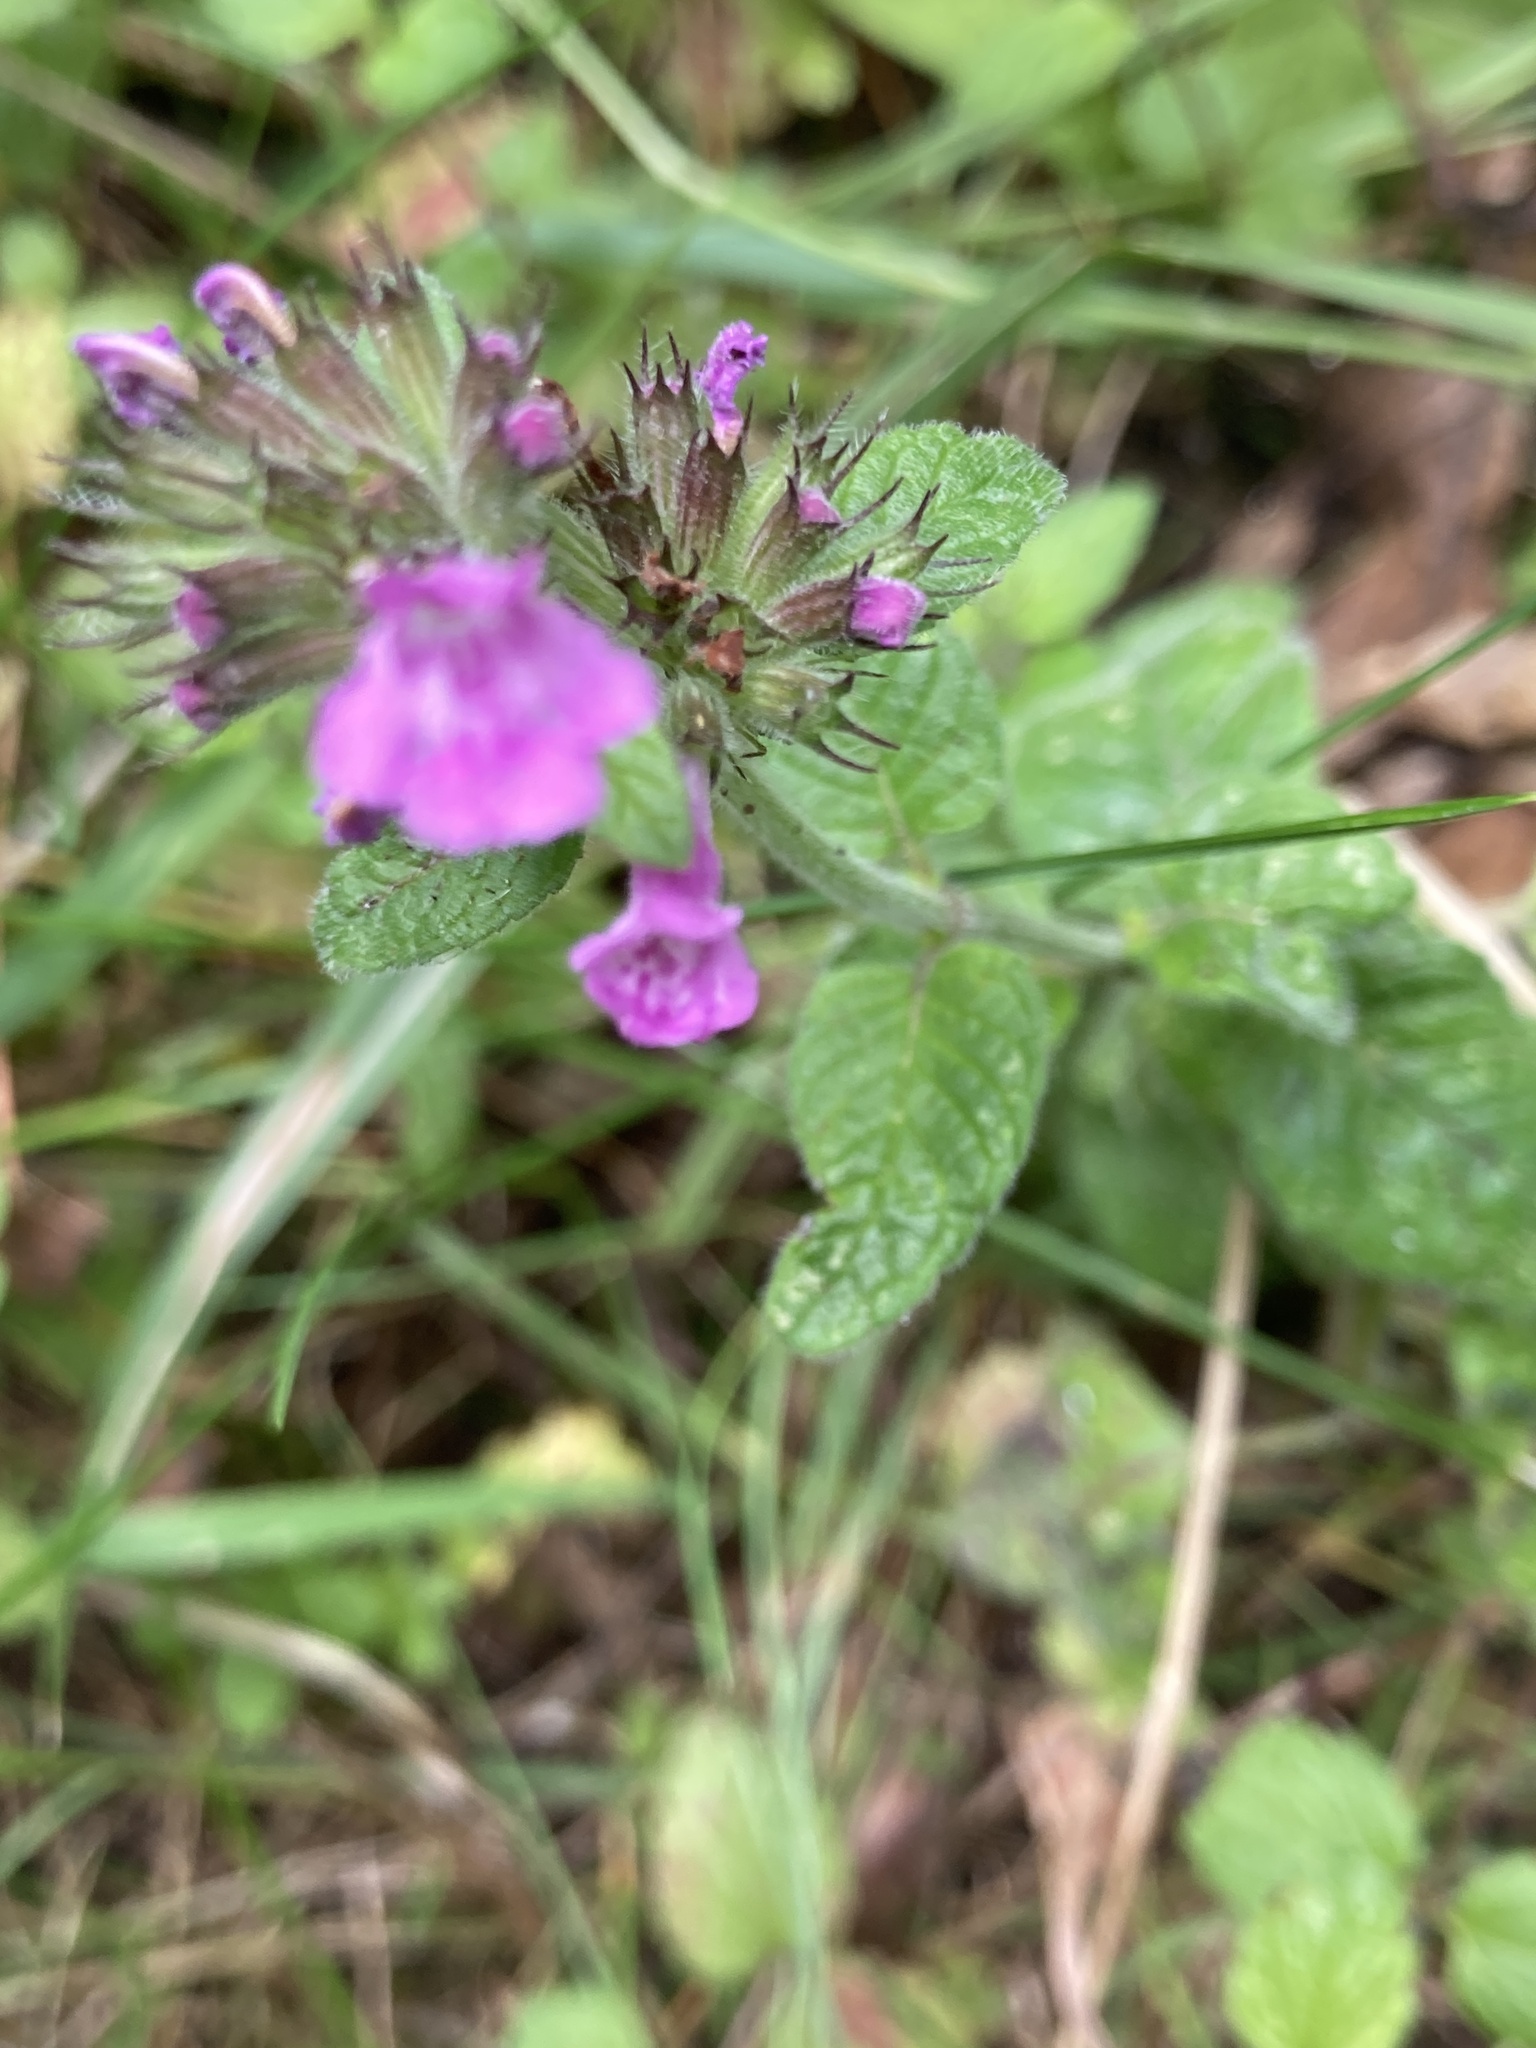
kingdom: Plantae
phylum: Tracheophyta
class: Magnoliopsida
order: Lamiales
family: Lamiaceae
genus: Clinopodium
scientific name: Clinopodium vulgare
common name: Wild basil
